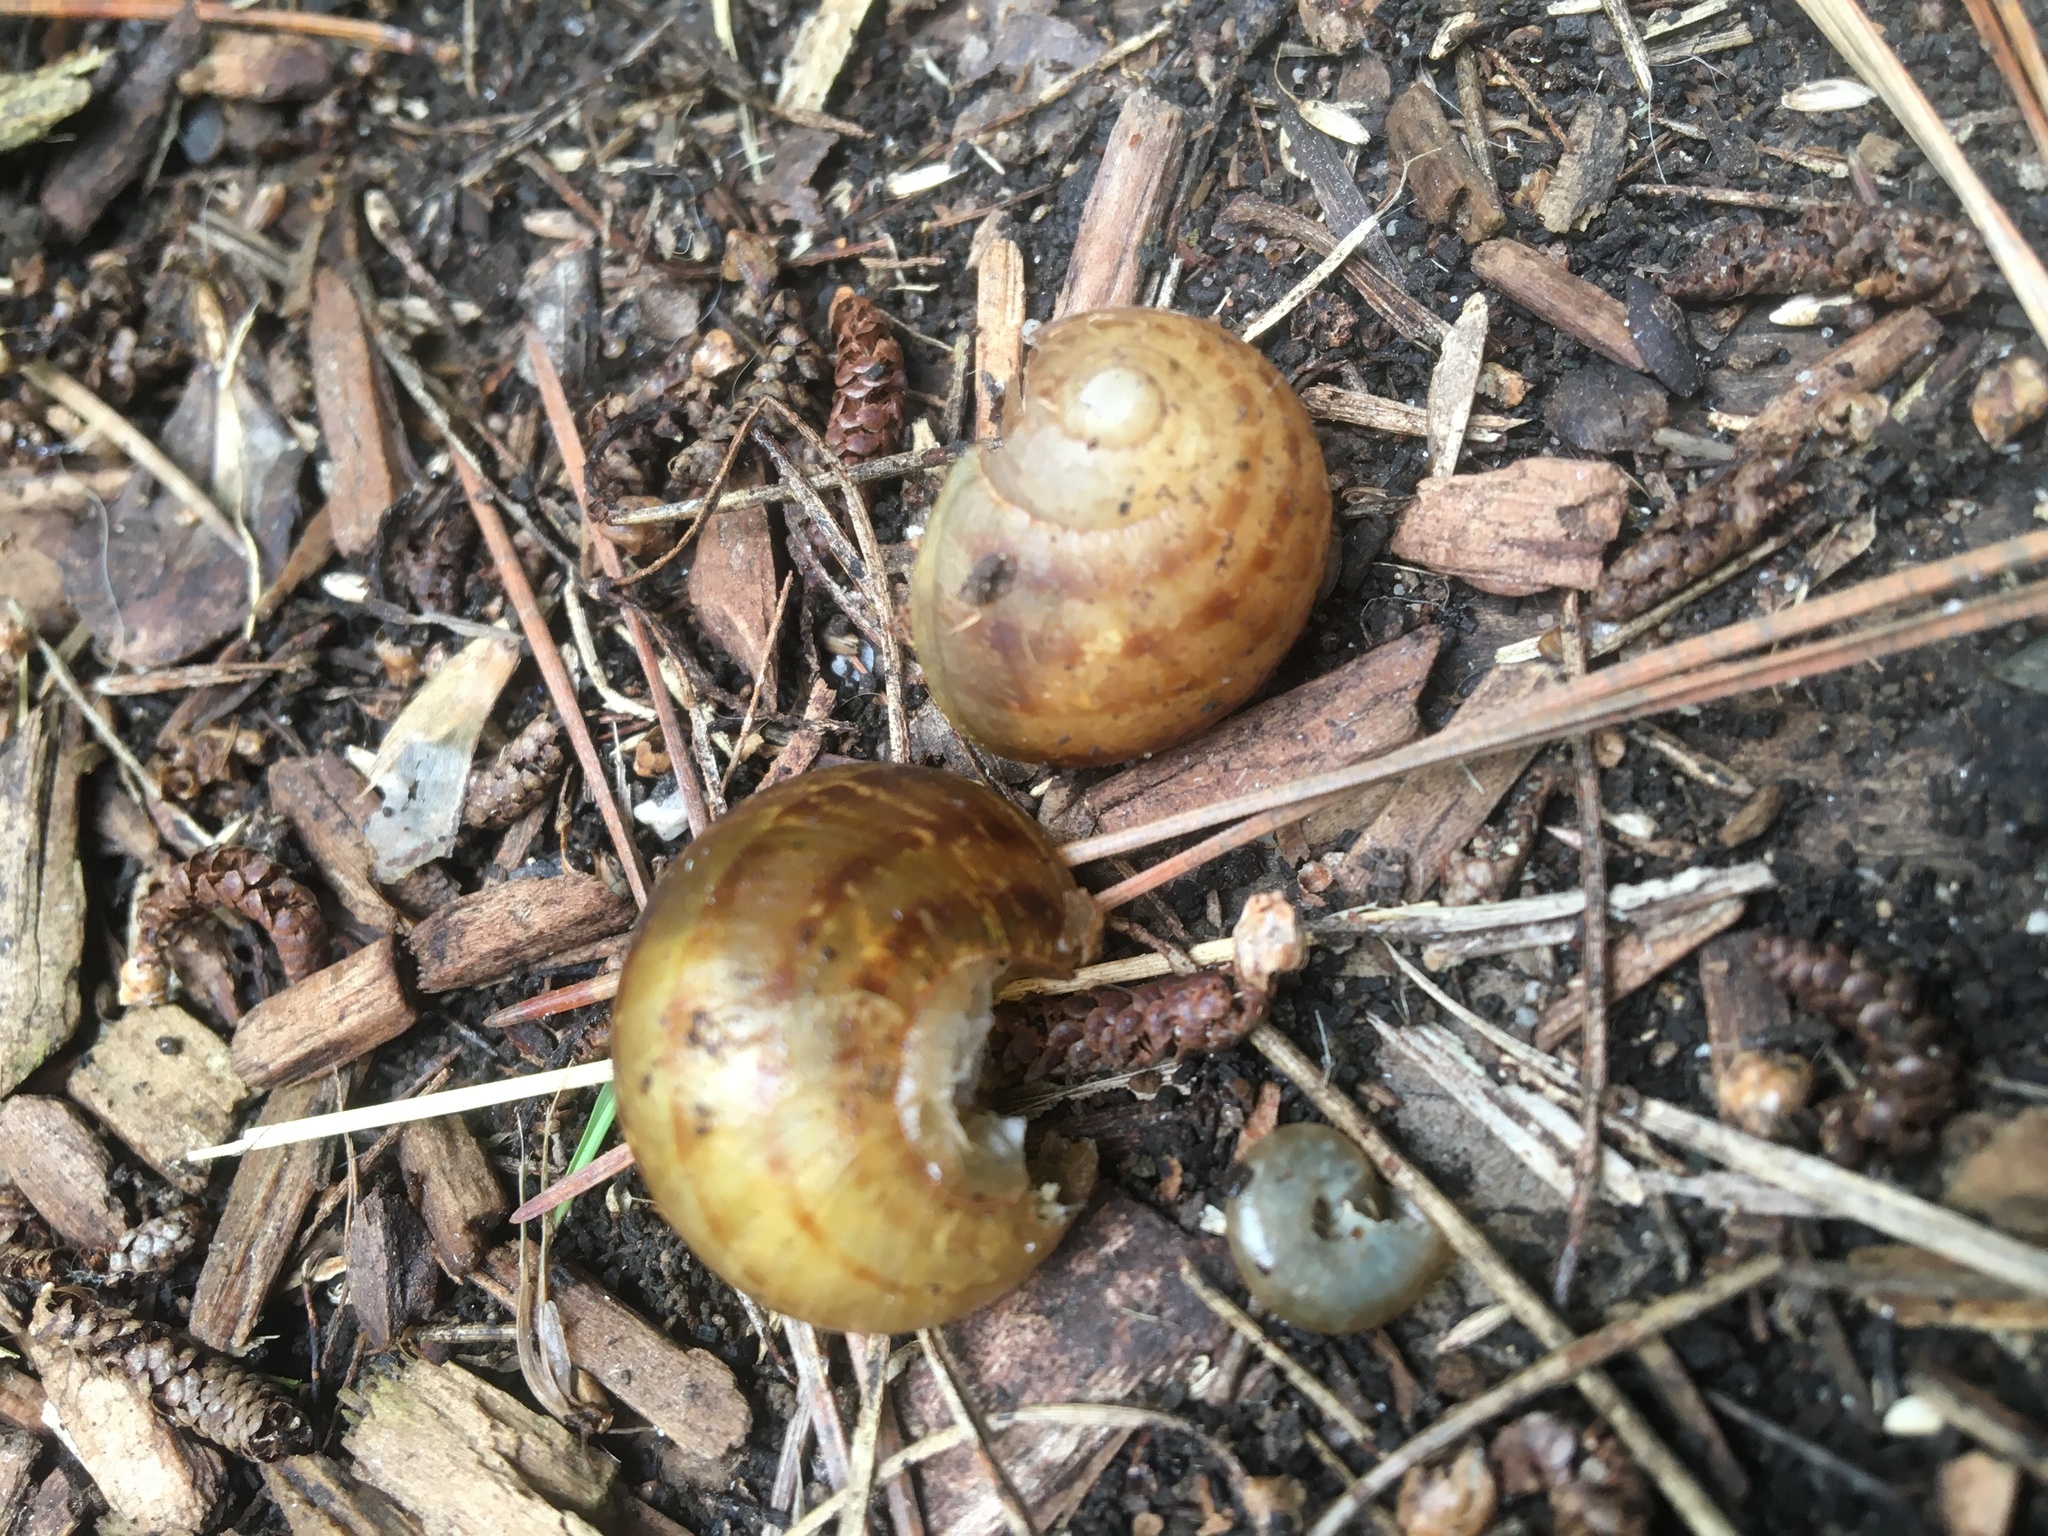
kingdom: Animalia
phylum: Mollusca
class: Gastropoda
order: Stylommatophora
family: Helicidae
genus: Cornu
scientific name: Cornu aspersum
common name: Brown garden snail
